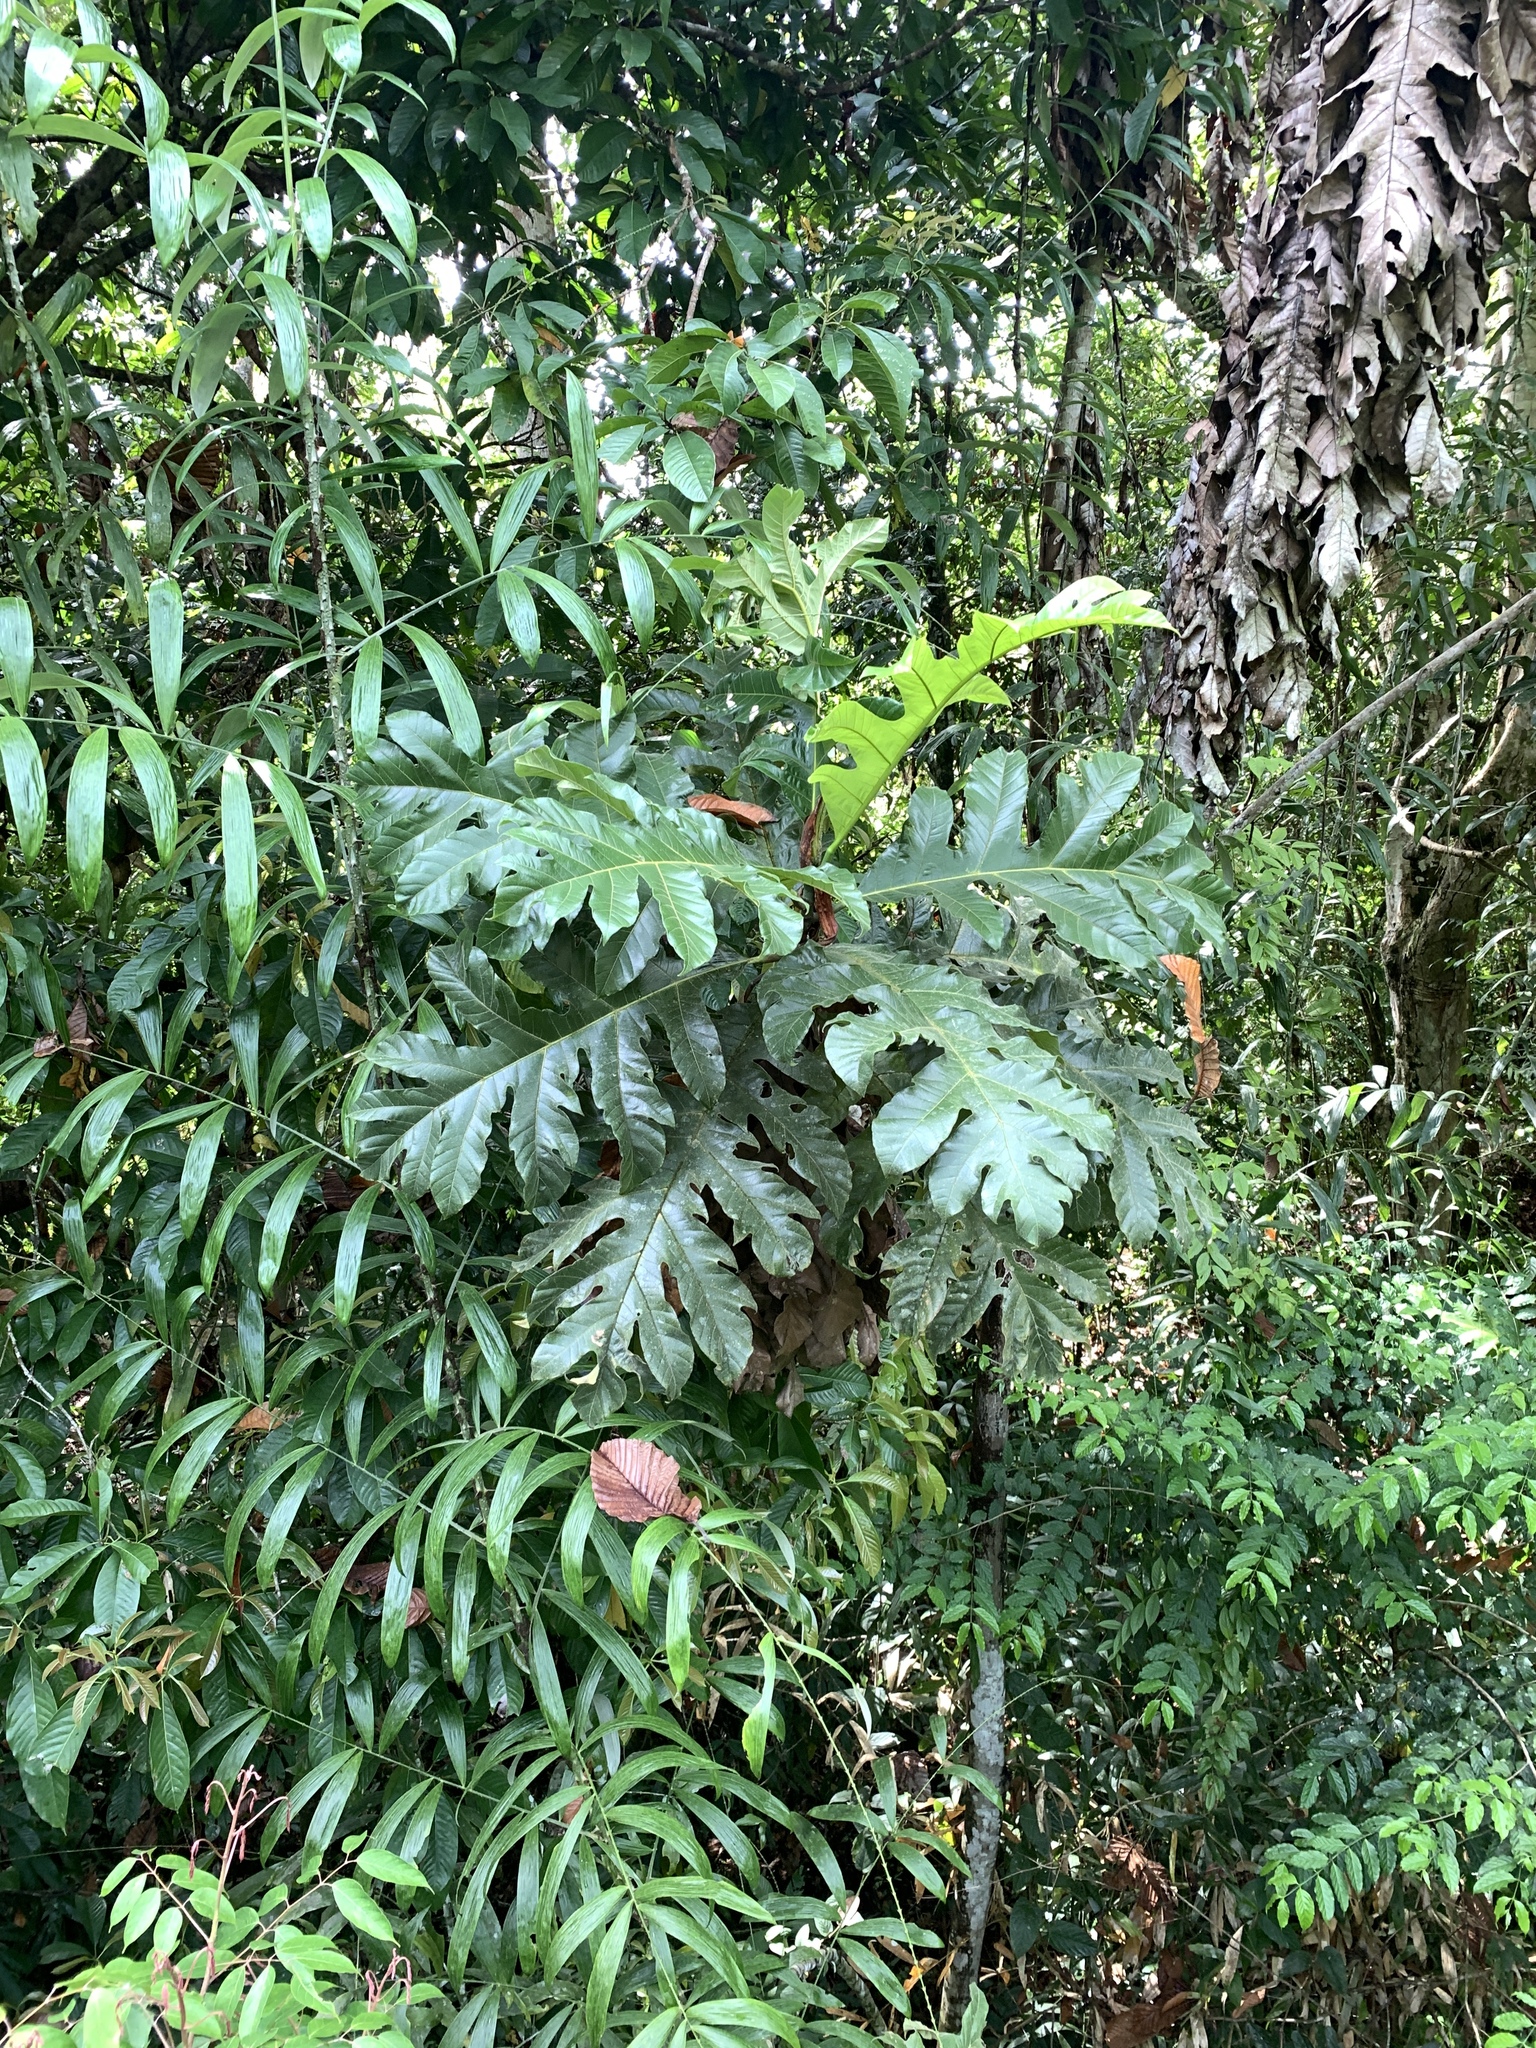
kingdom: Plantae
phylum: Tracheophyta
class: Magnoliopsida
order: Rosales
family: Moraceae
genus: Artocarpus
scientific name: Artocarpus elasticus
